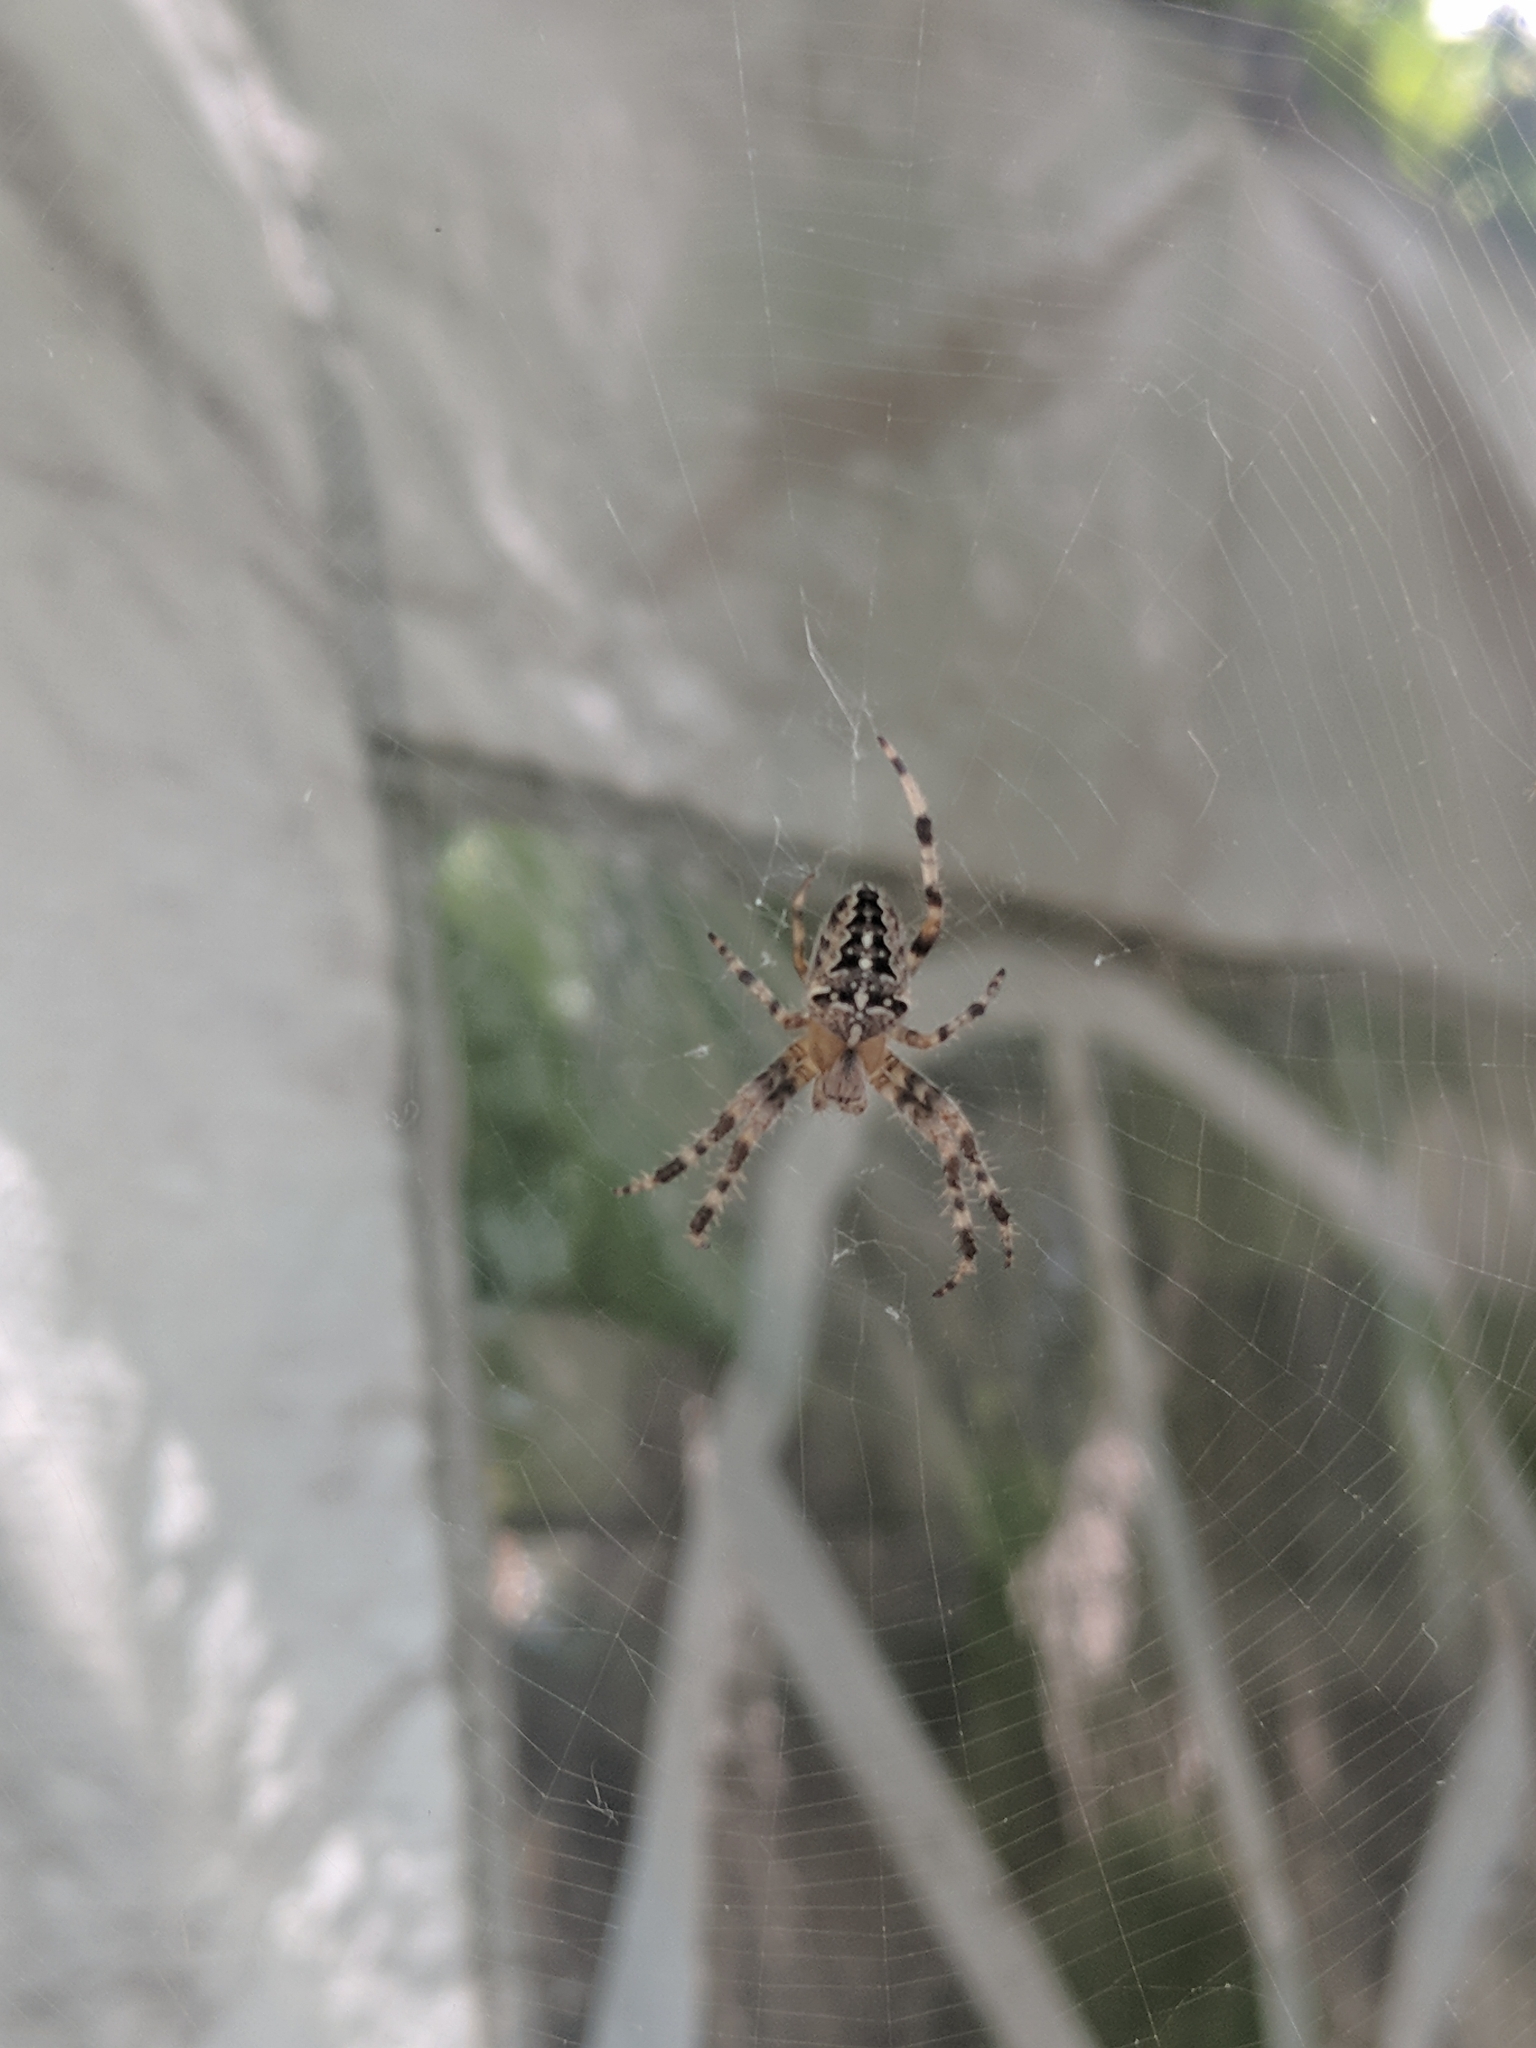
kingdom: Animalia
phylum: Arthropoda
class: Arachnida
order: Araneae
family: Araneidae
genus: Araneus
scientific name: Araneus diadematus
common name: Cross orbweaver
